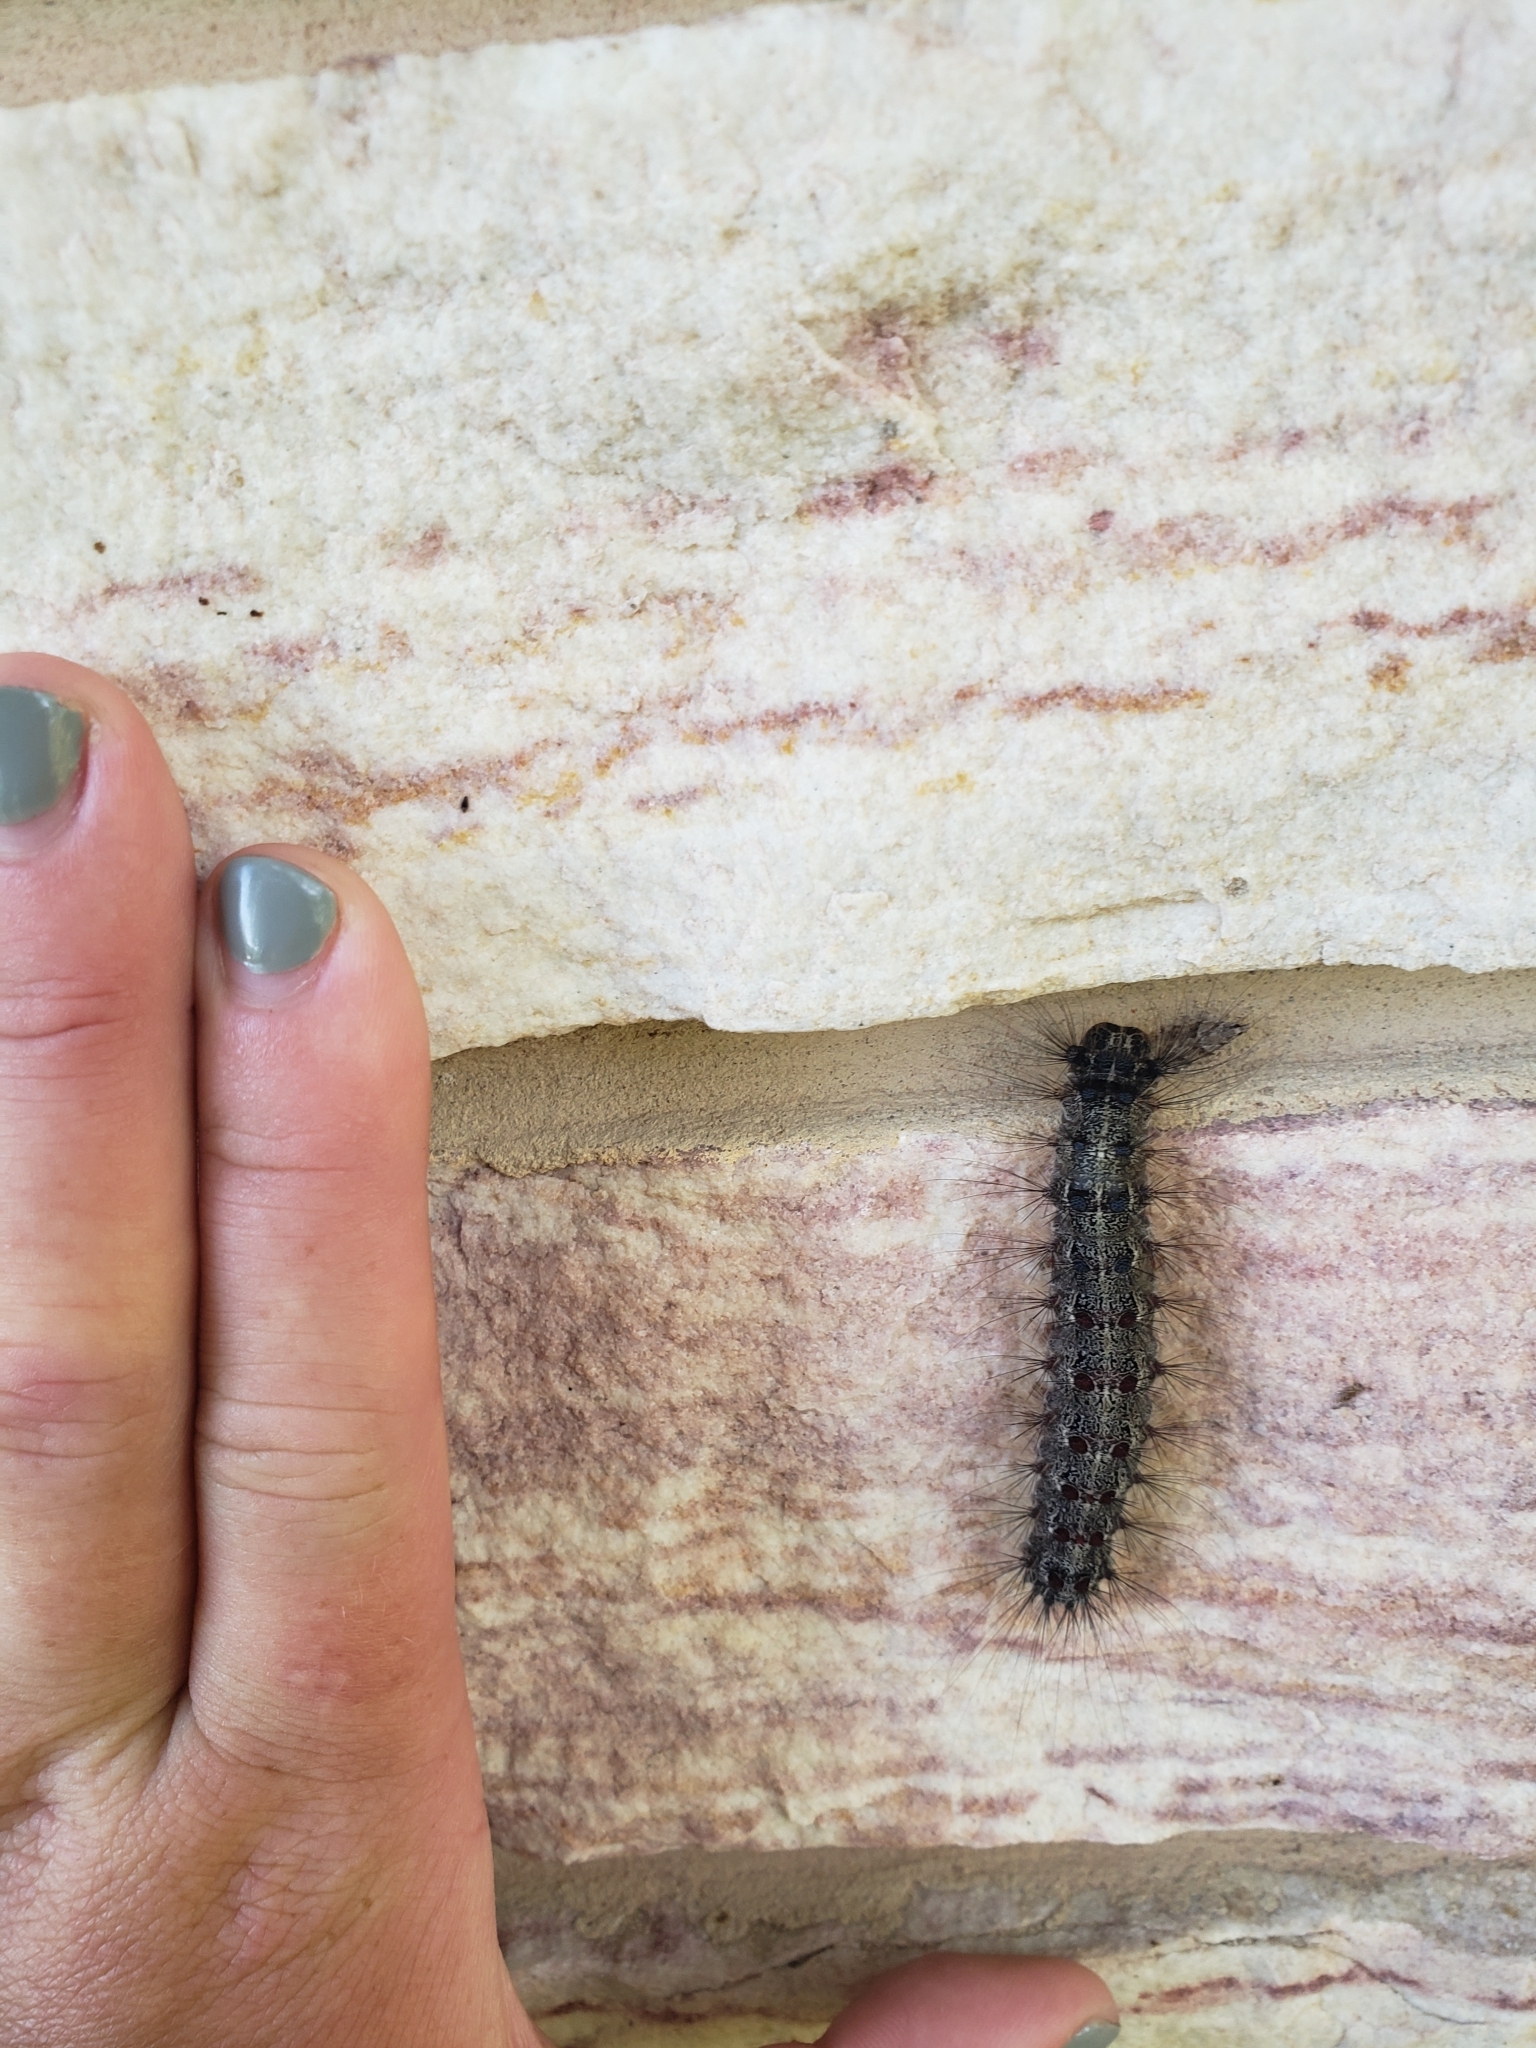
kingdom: Animalia
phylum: Arthropoda
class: Insecta
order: Lepidoptera
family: Erebidae
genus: Lymantria
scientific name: Lymantria dispar
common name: Gypsy moth
